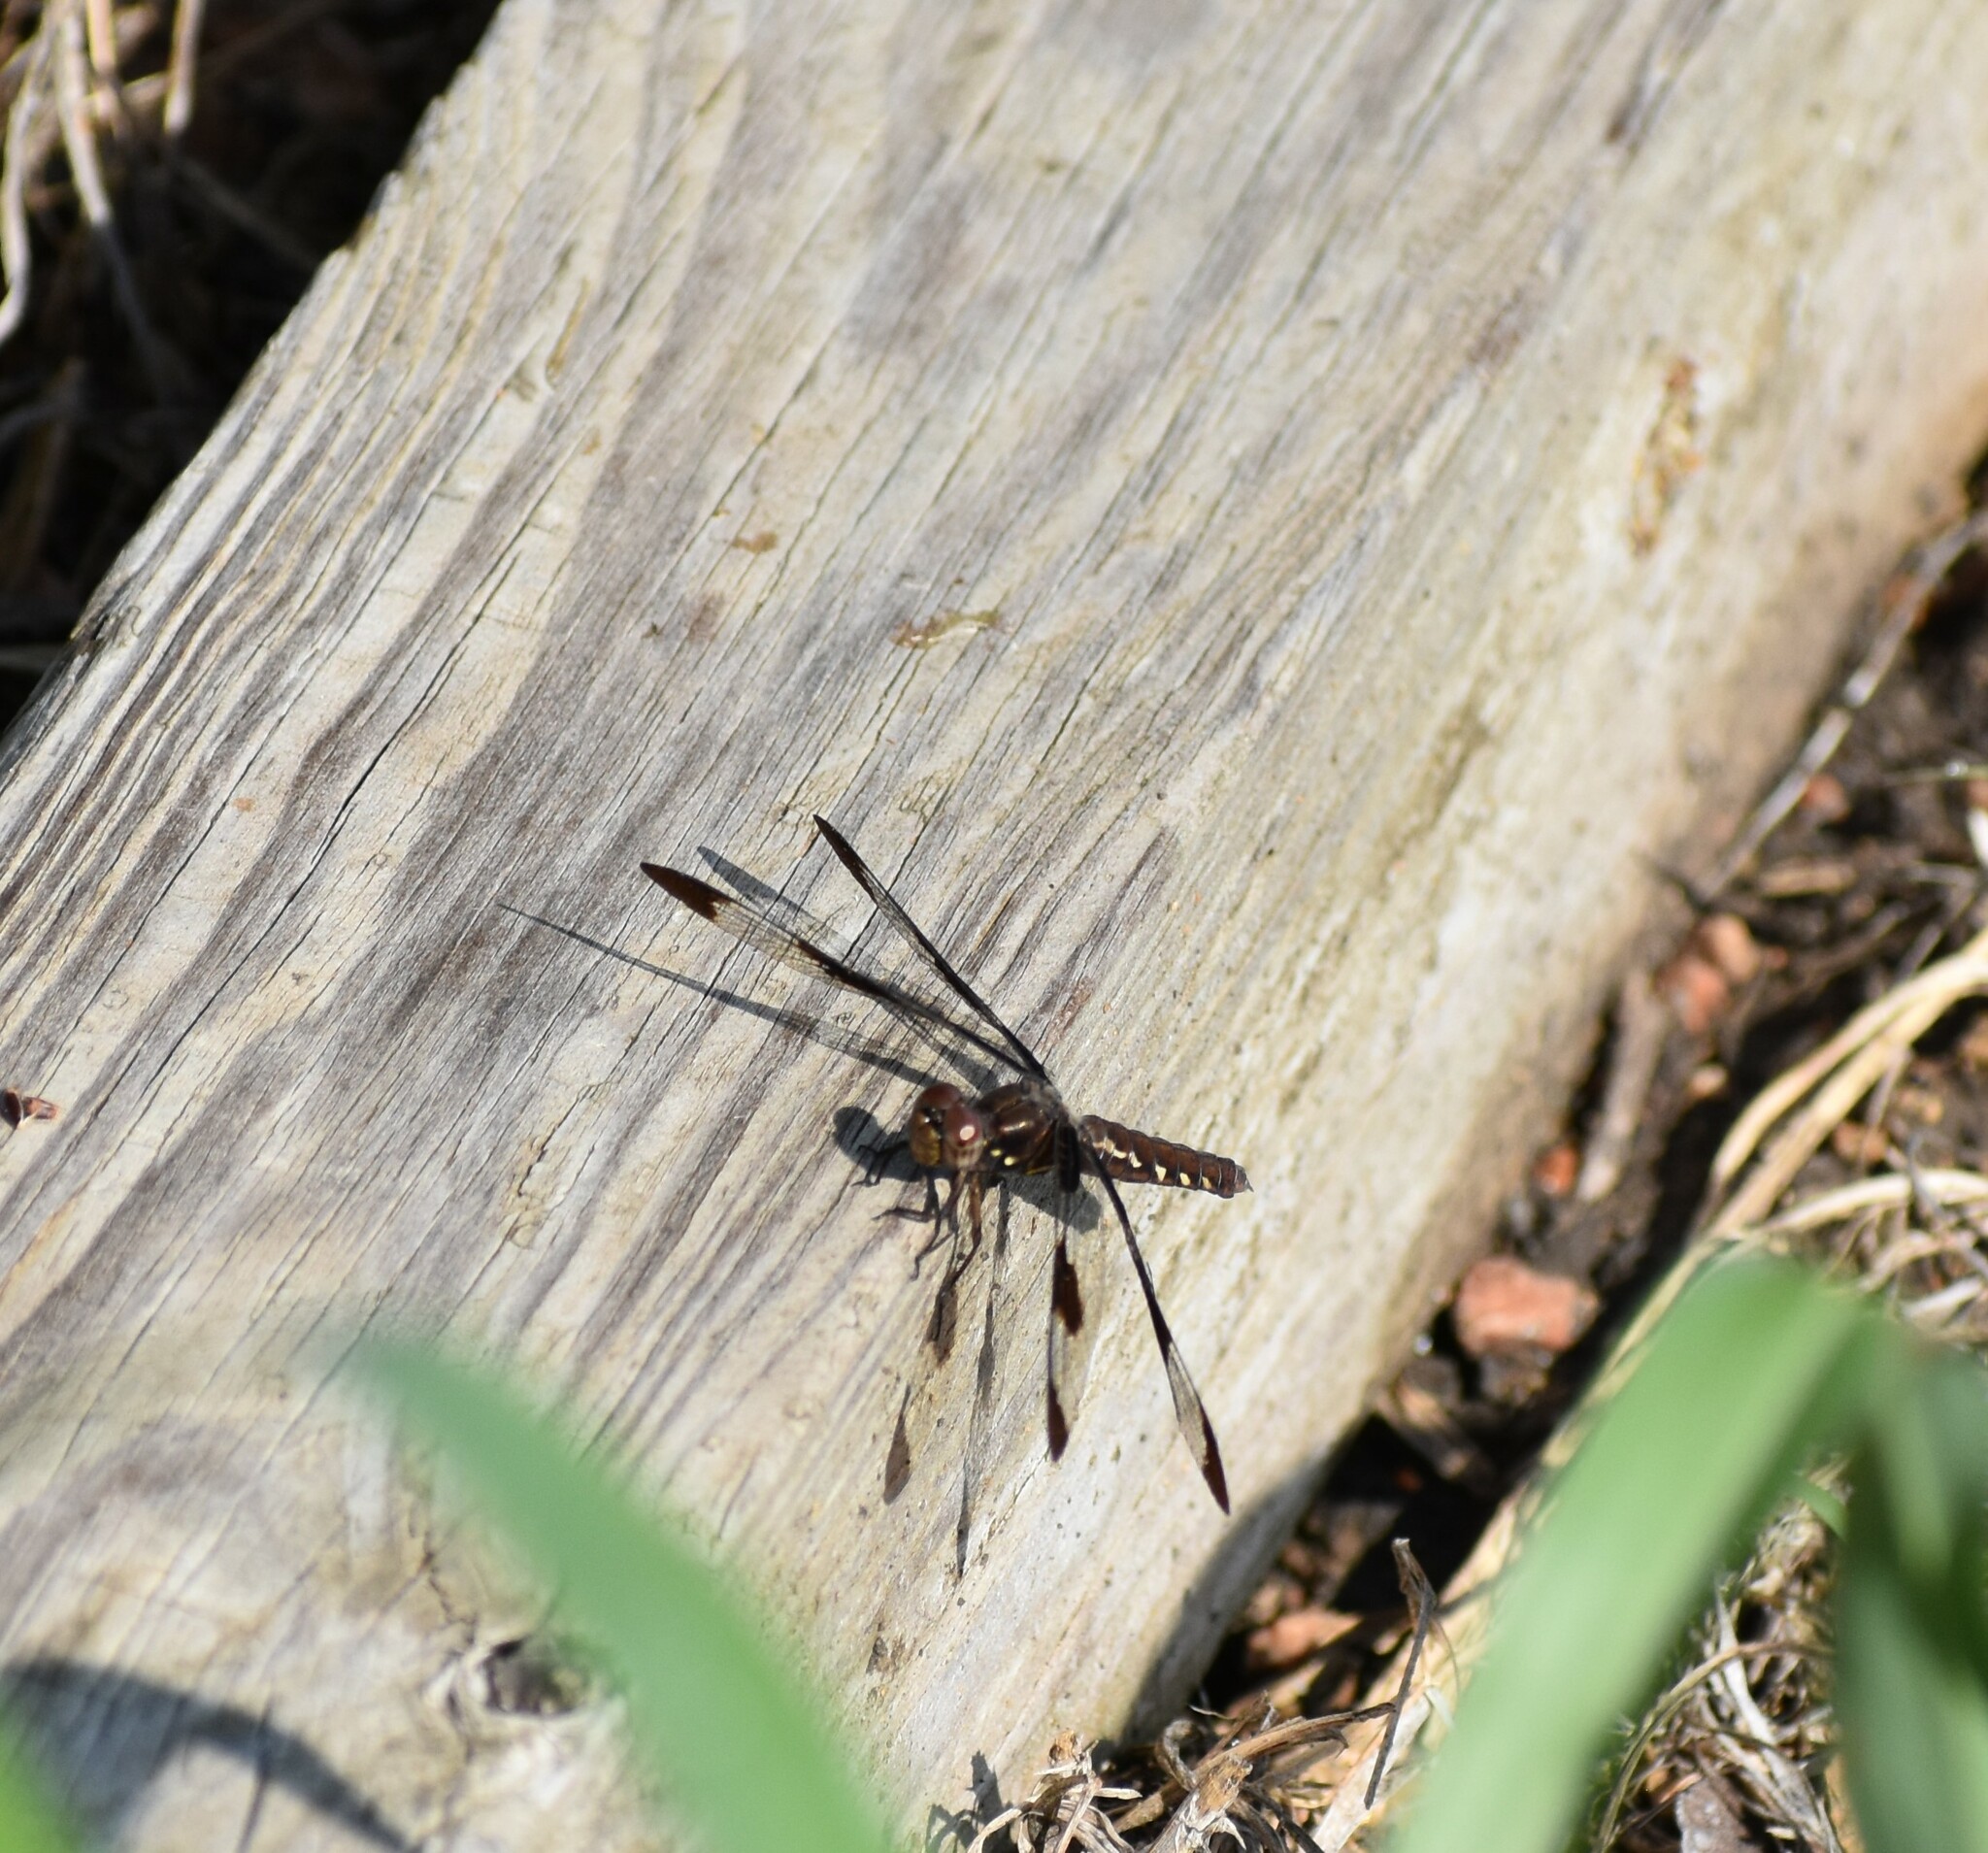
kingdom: Animalia
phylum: Arthropoda
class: Insecta
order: Odonata
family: Libellulidae
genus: Plathemis
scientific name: Plathemis lydia
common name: Common whitetail
